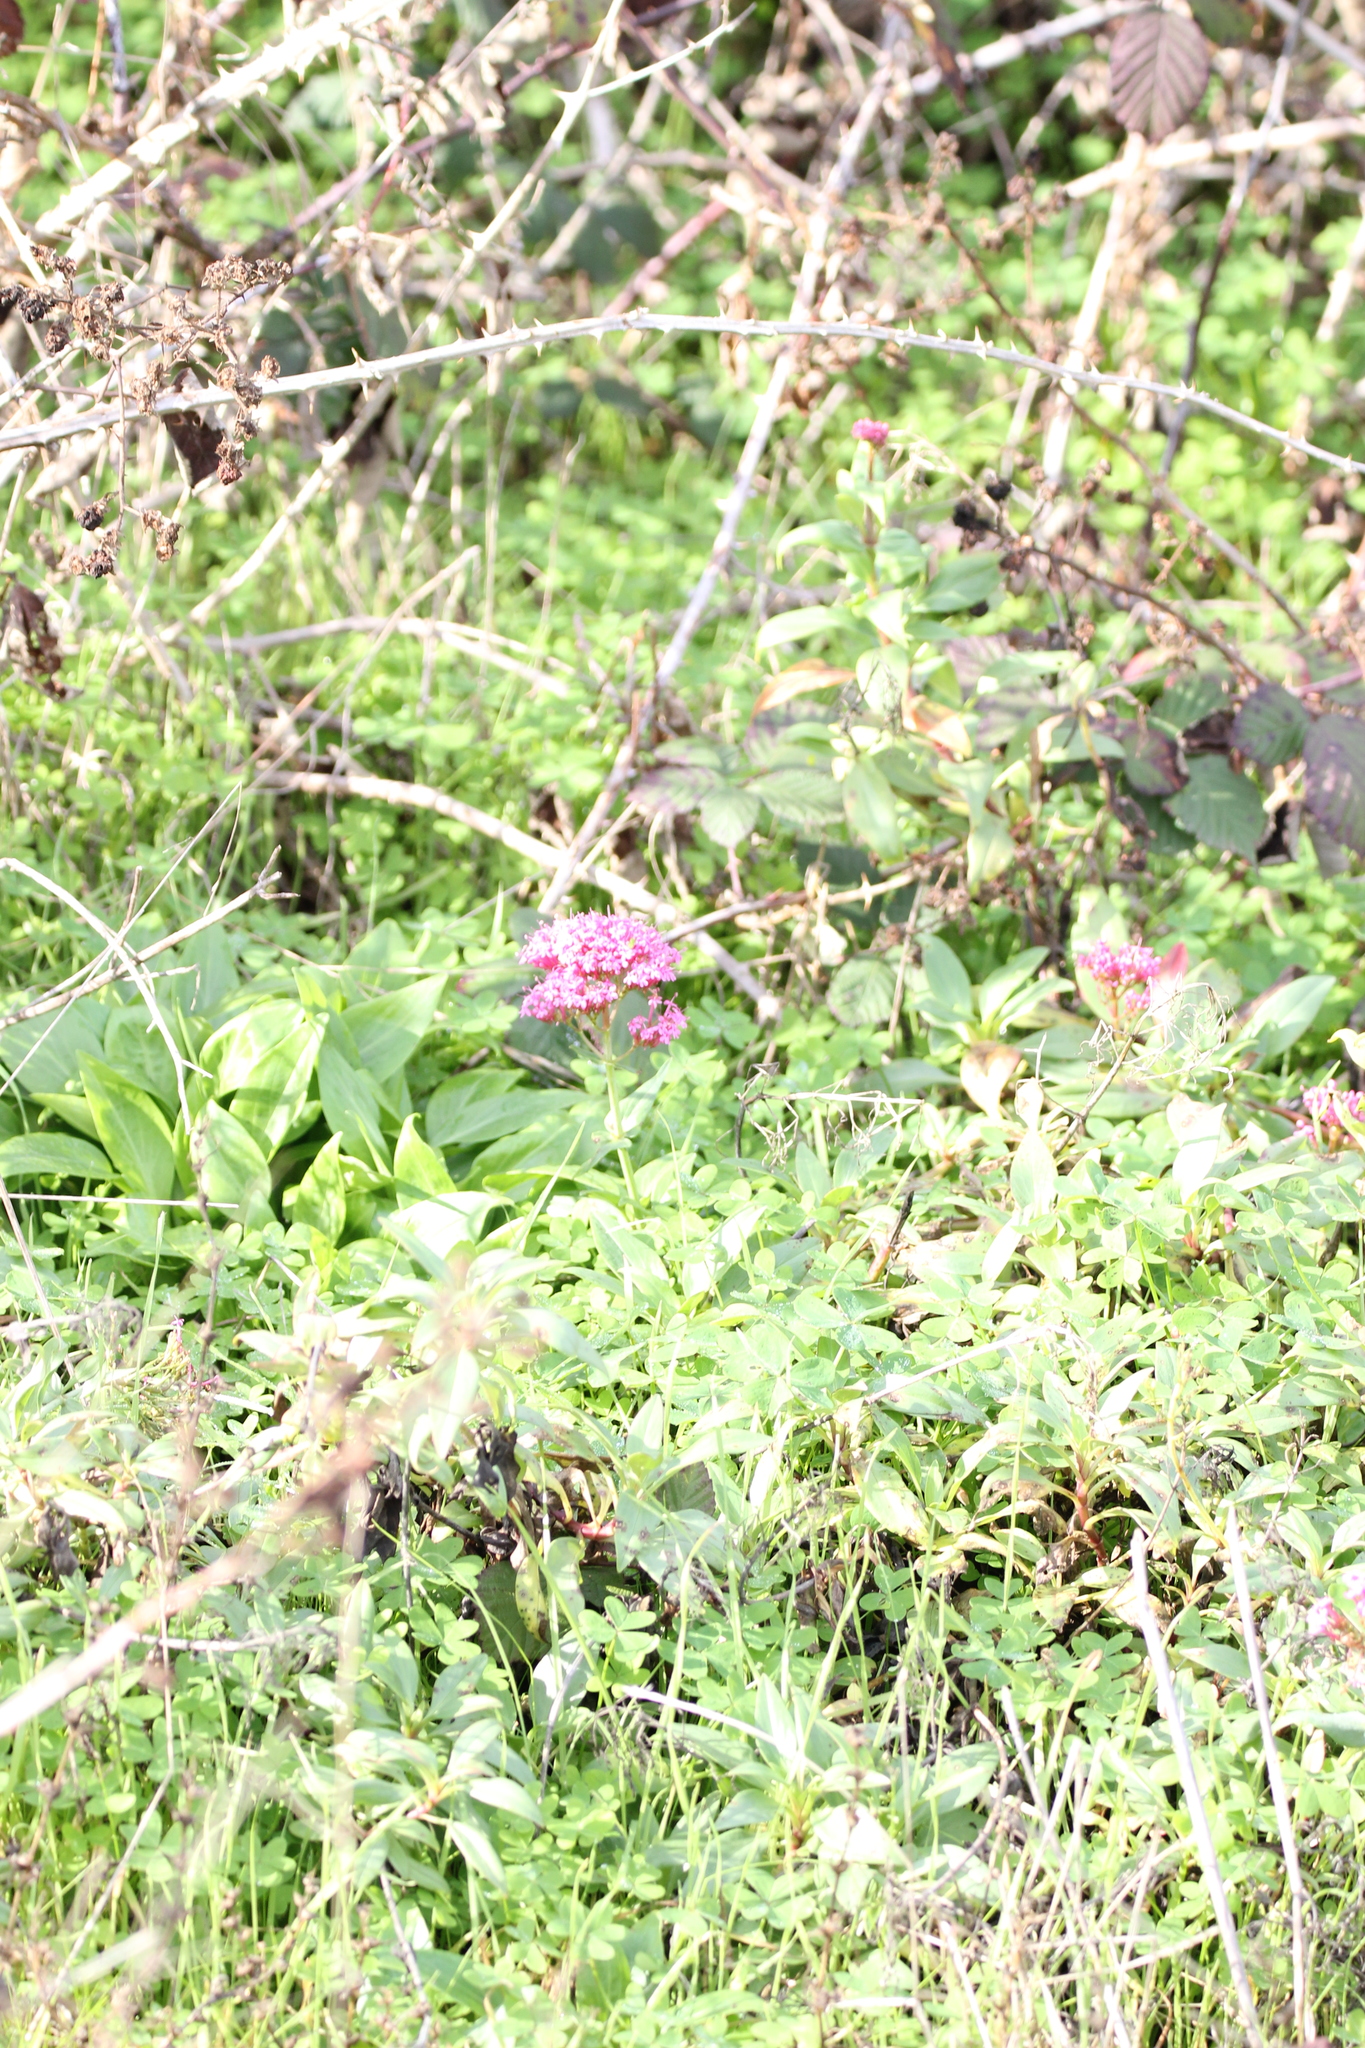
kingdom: Plantae
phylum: Tracheophyta
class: Magnoliopsida
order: Dipsacales
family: Caprifoliaceae
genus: Centranthus
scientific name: Centranthus ruber
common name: Red valerian
